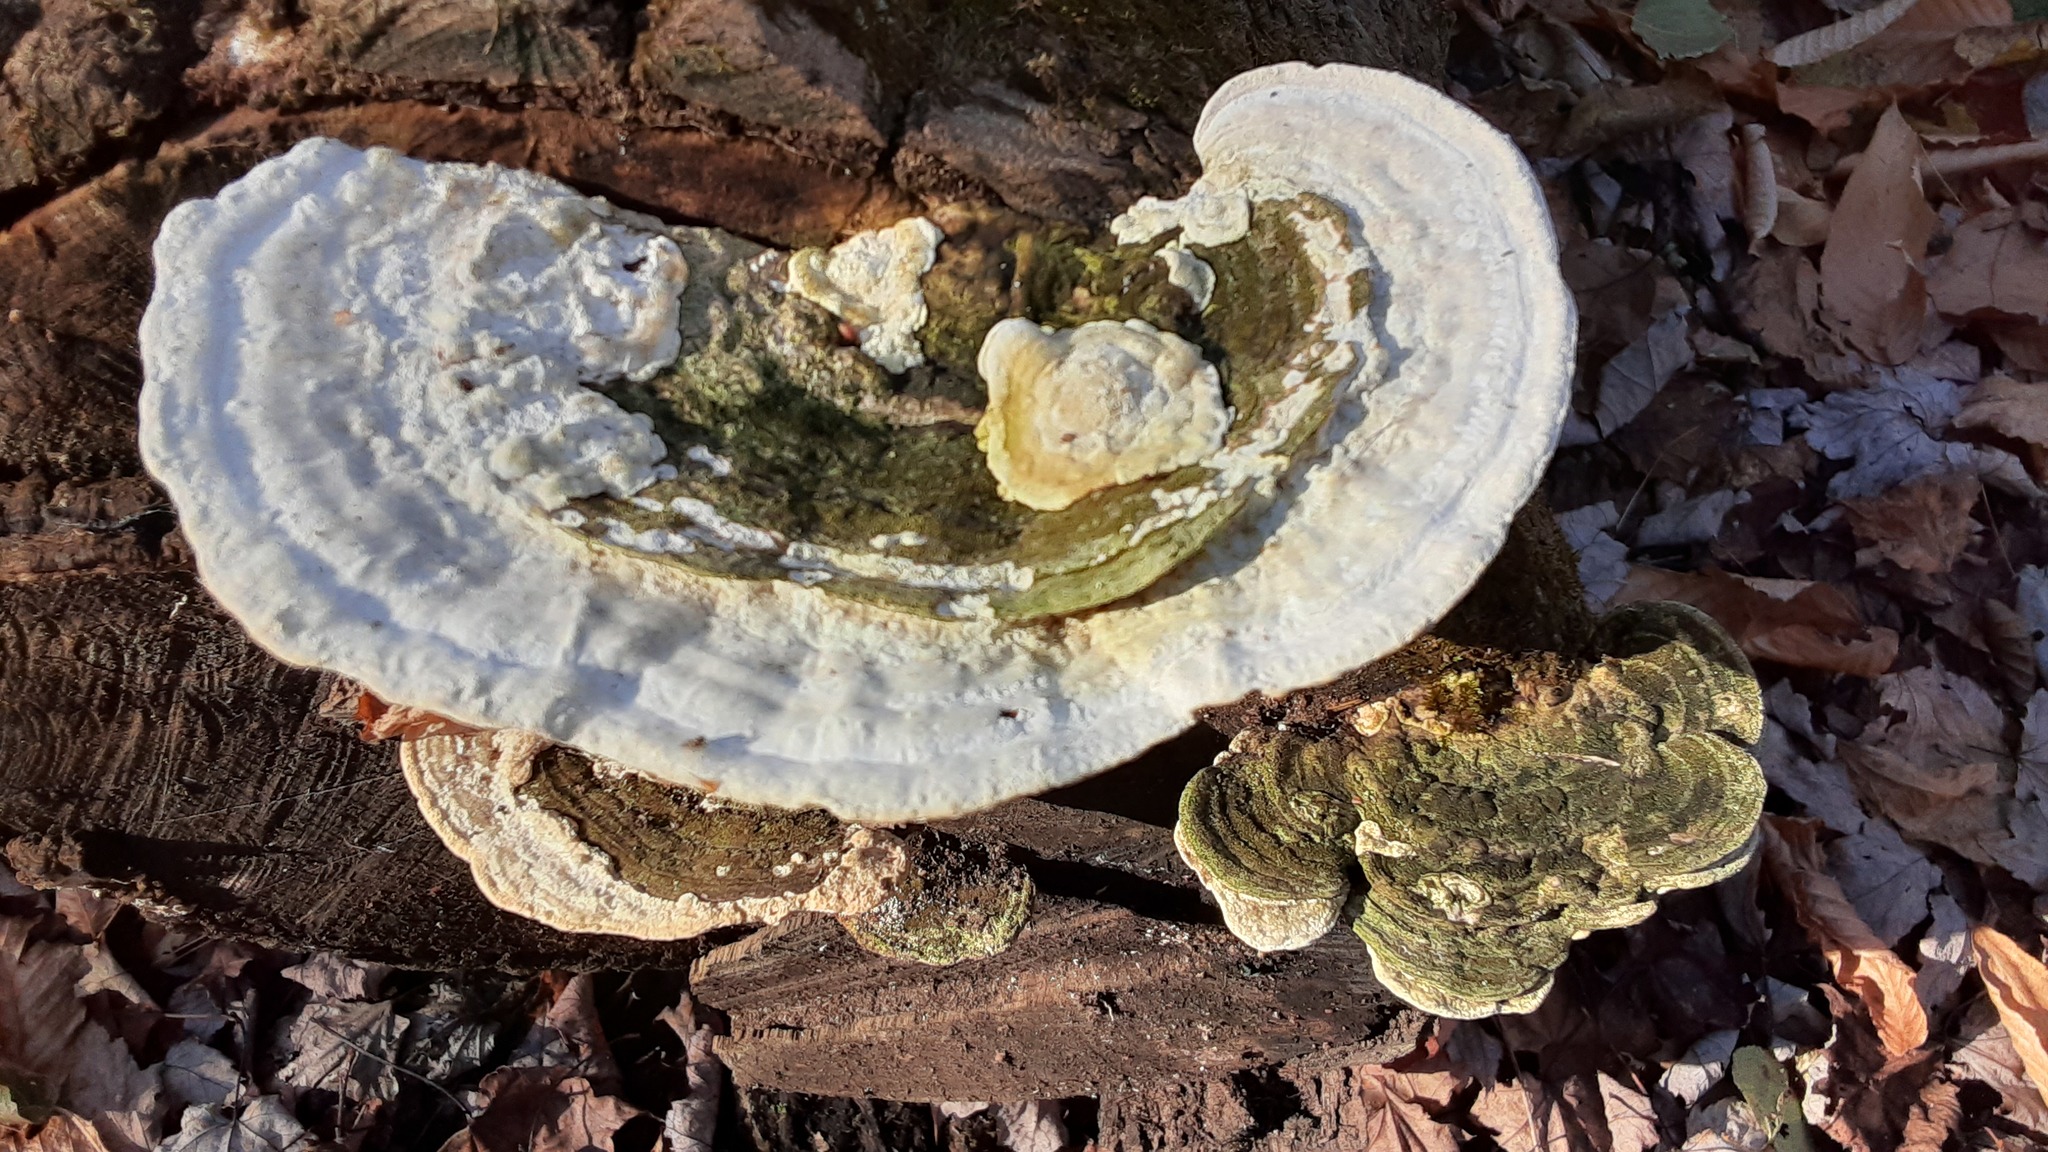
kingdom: Fungi
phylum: Basidiomycota
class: Agaricomycetes
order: Polyporales
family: Polyporaceae
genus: Trametes
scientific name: Trametes gibbosa
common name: Lumpy bracket
